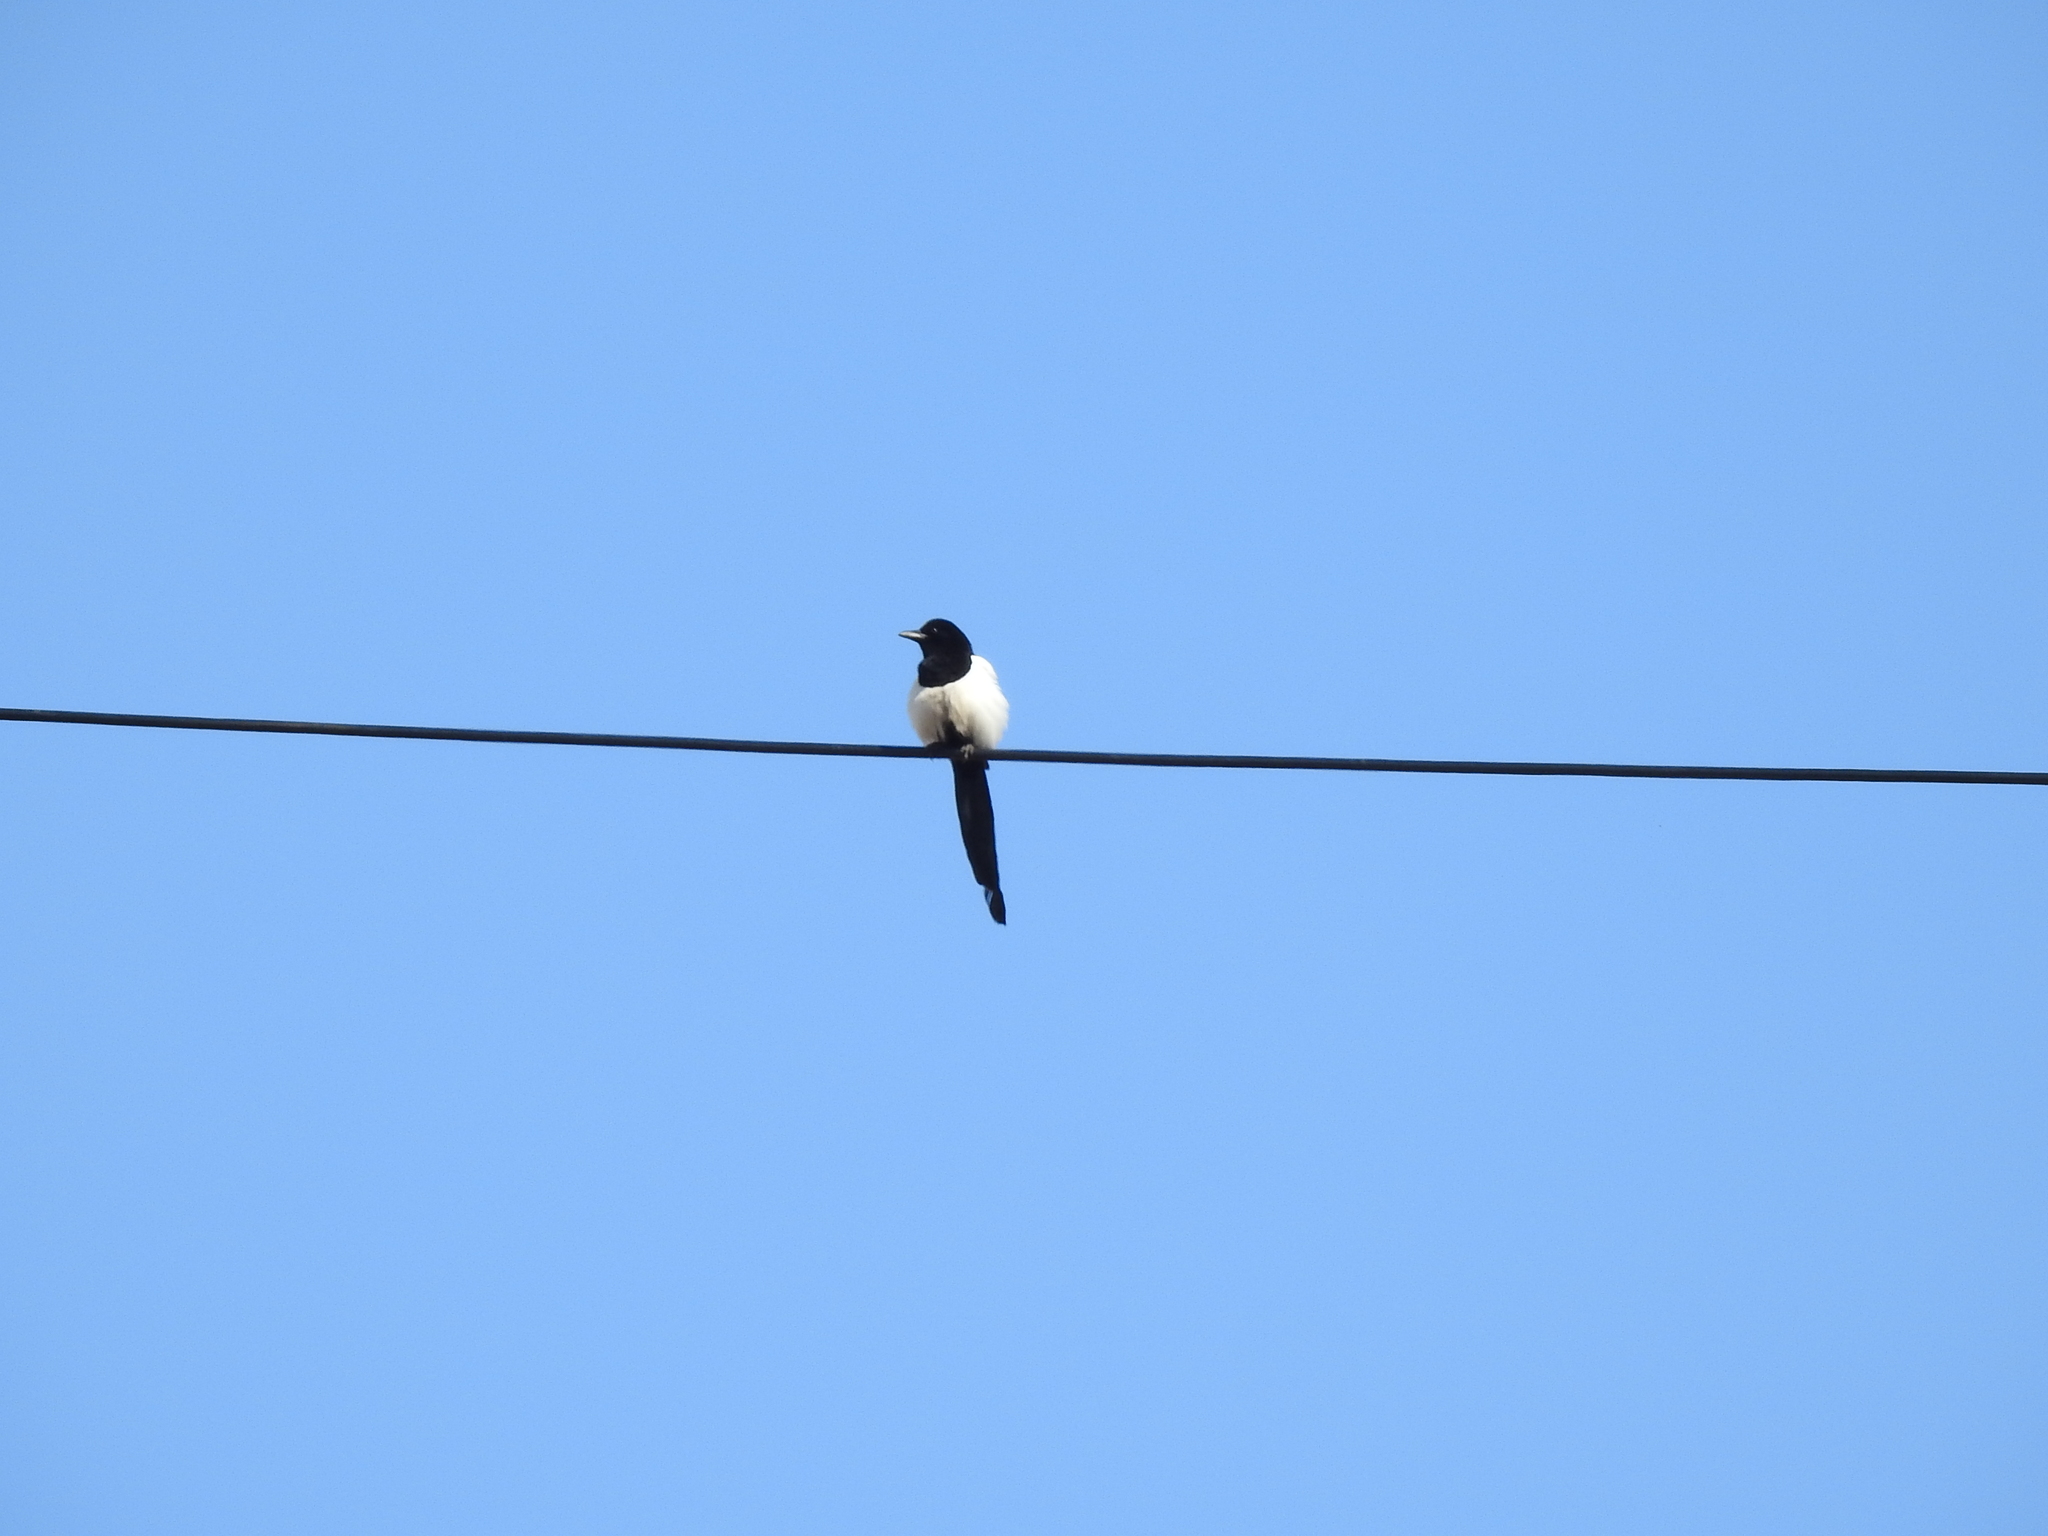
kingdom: Animalia
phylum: Chordata
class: Aves
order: Passeriformes
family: Corvidae
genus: Pica
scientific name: Pica pica
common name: Eurasian magpie
